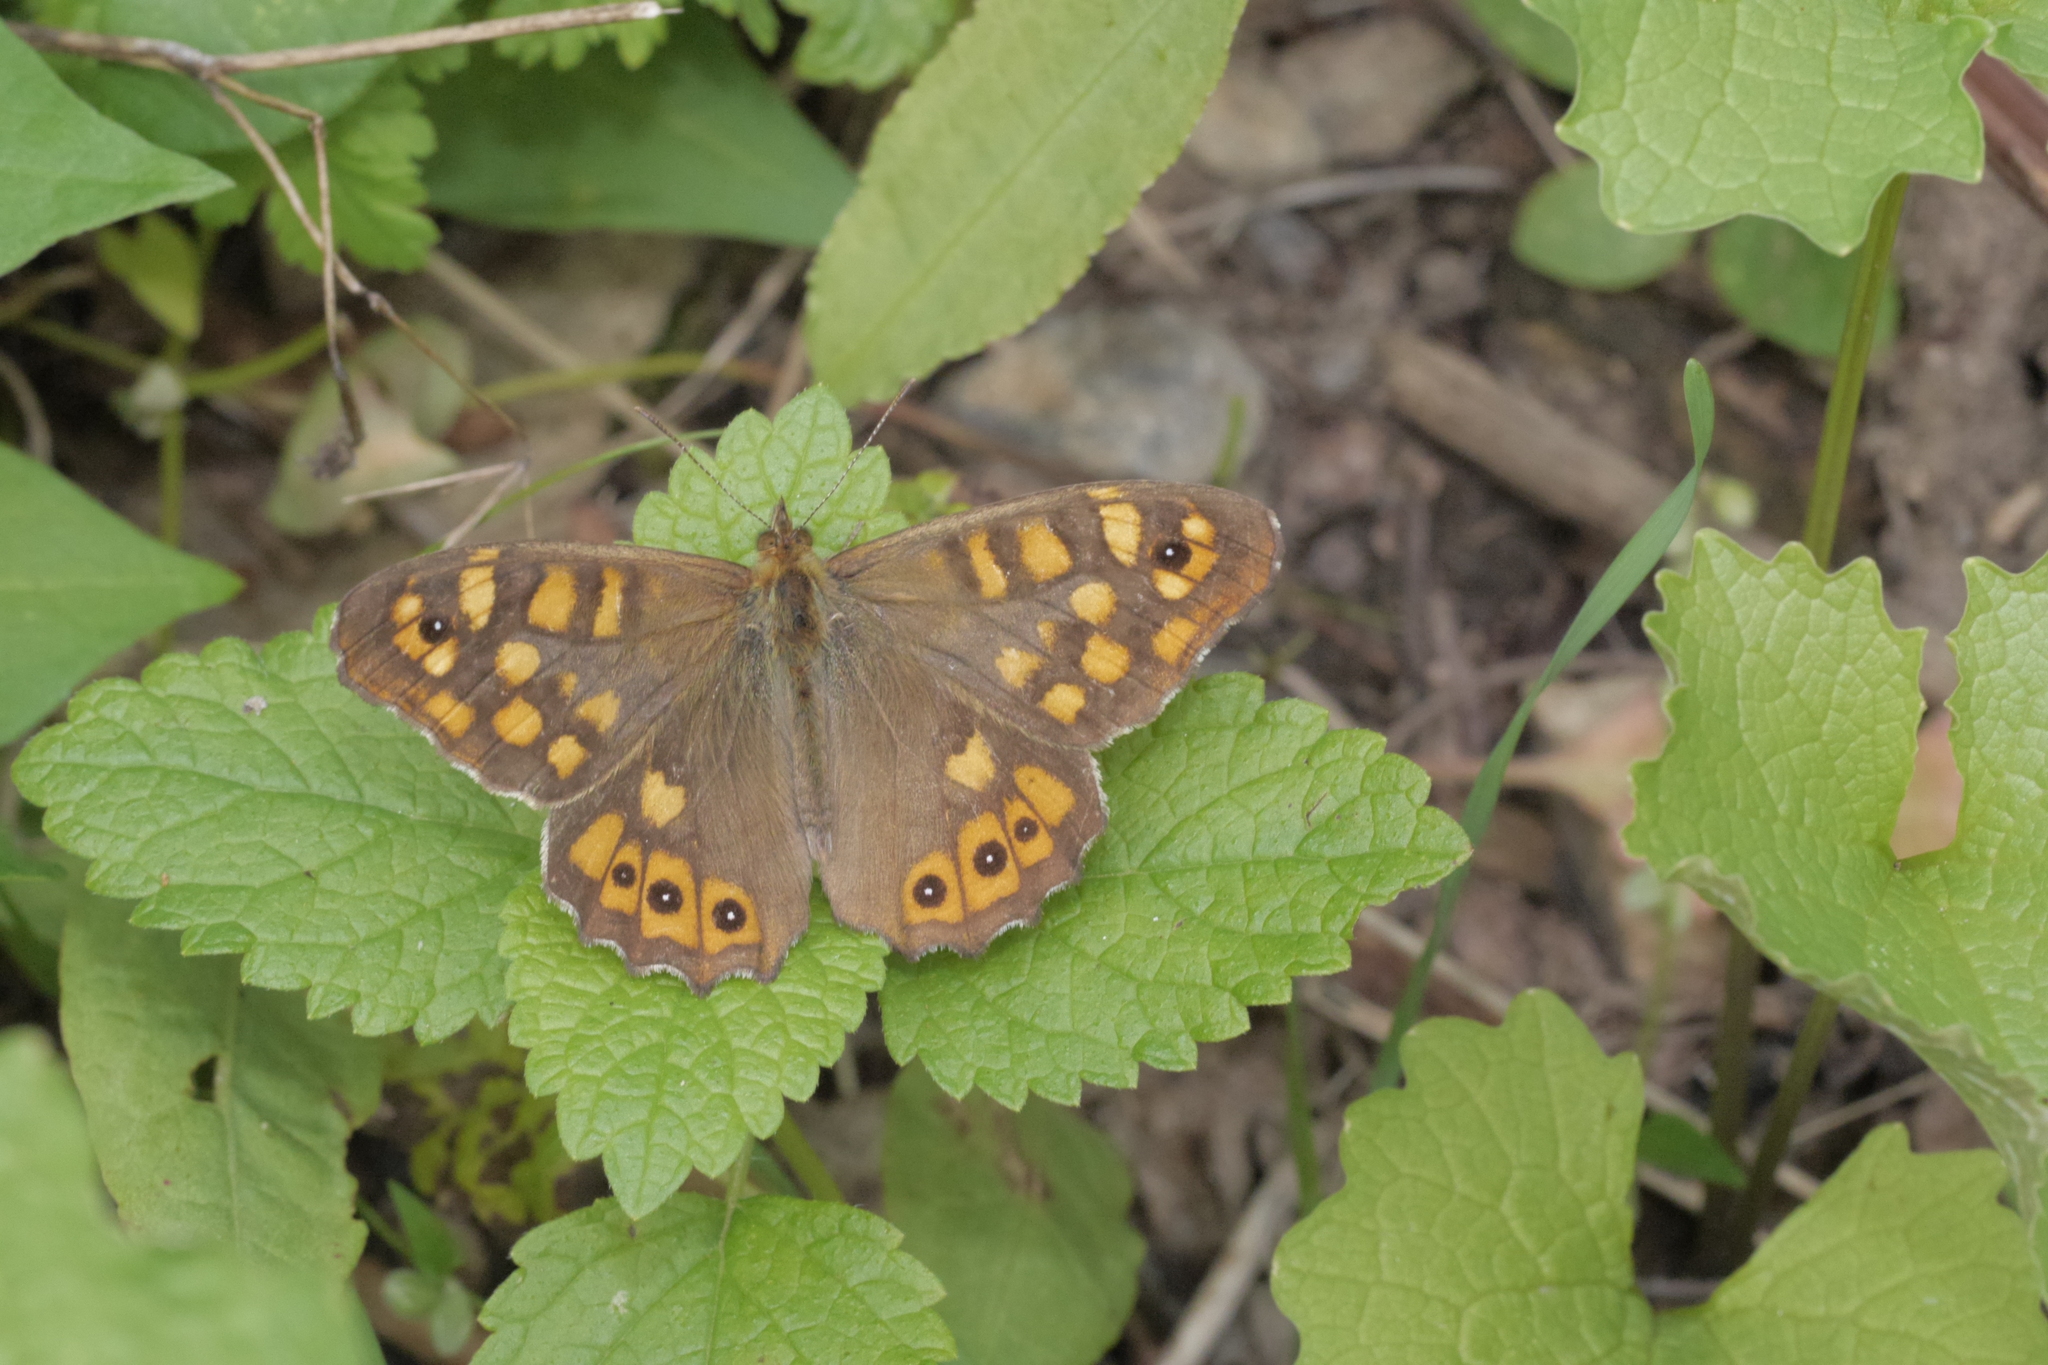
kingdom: Animalia
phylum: Arthropoda
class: Insecta
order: Lepidoptera
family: Nymphalidae
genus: Pararge
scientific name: Pararge aegeria
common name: Speckled wood
